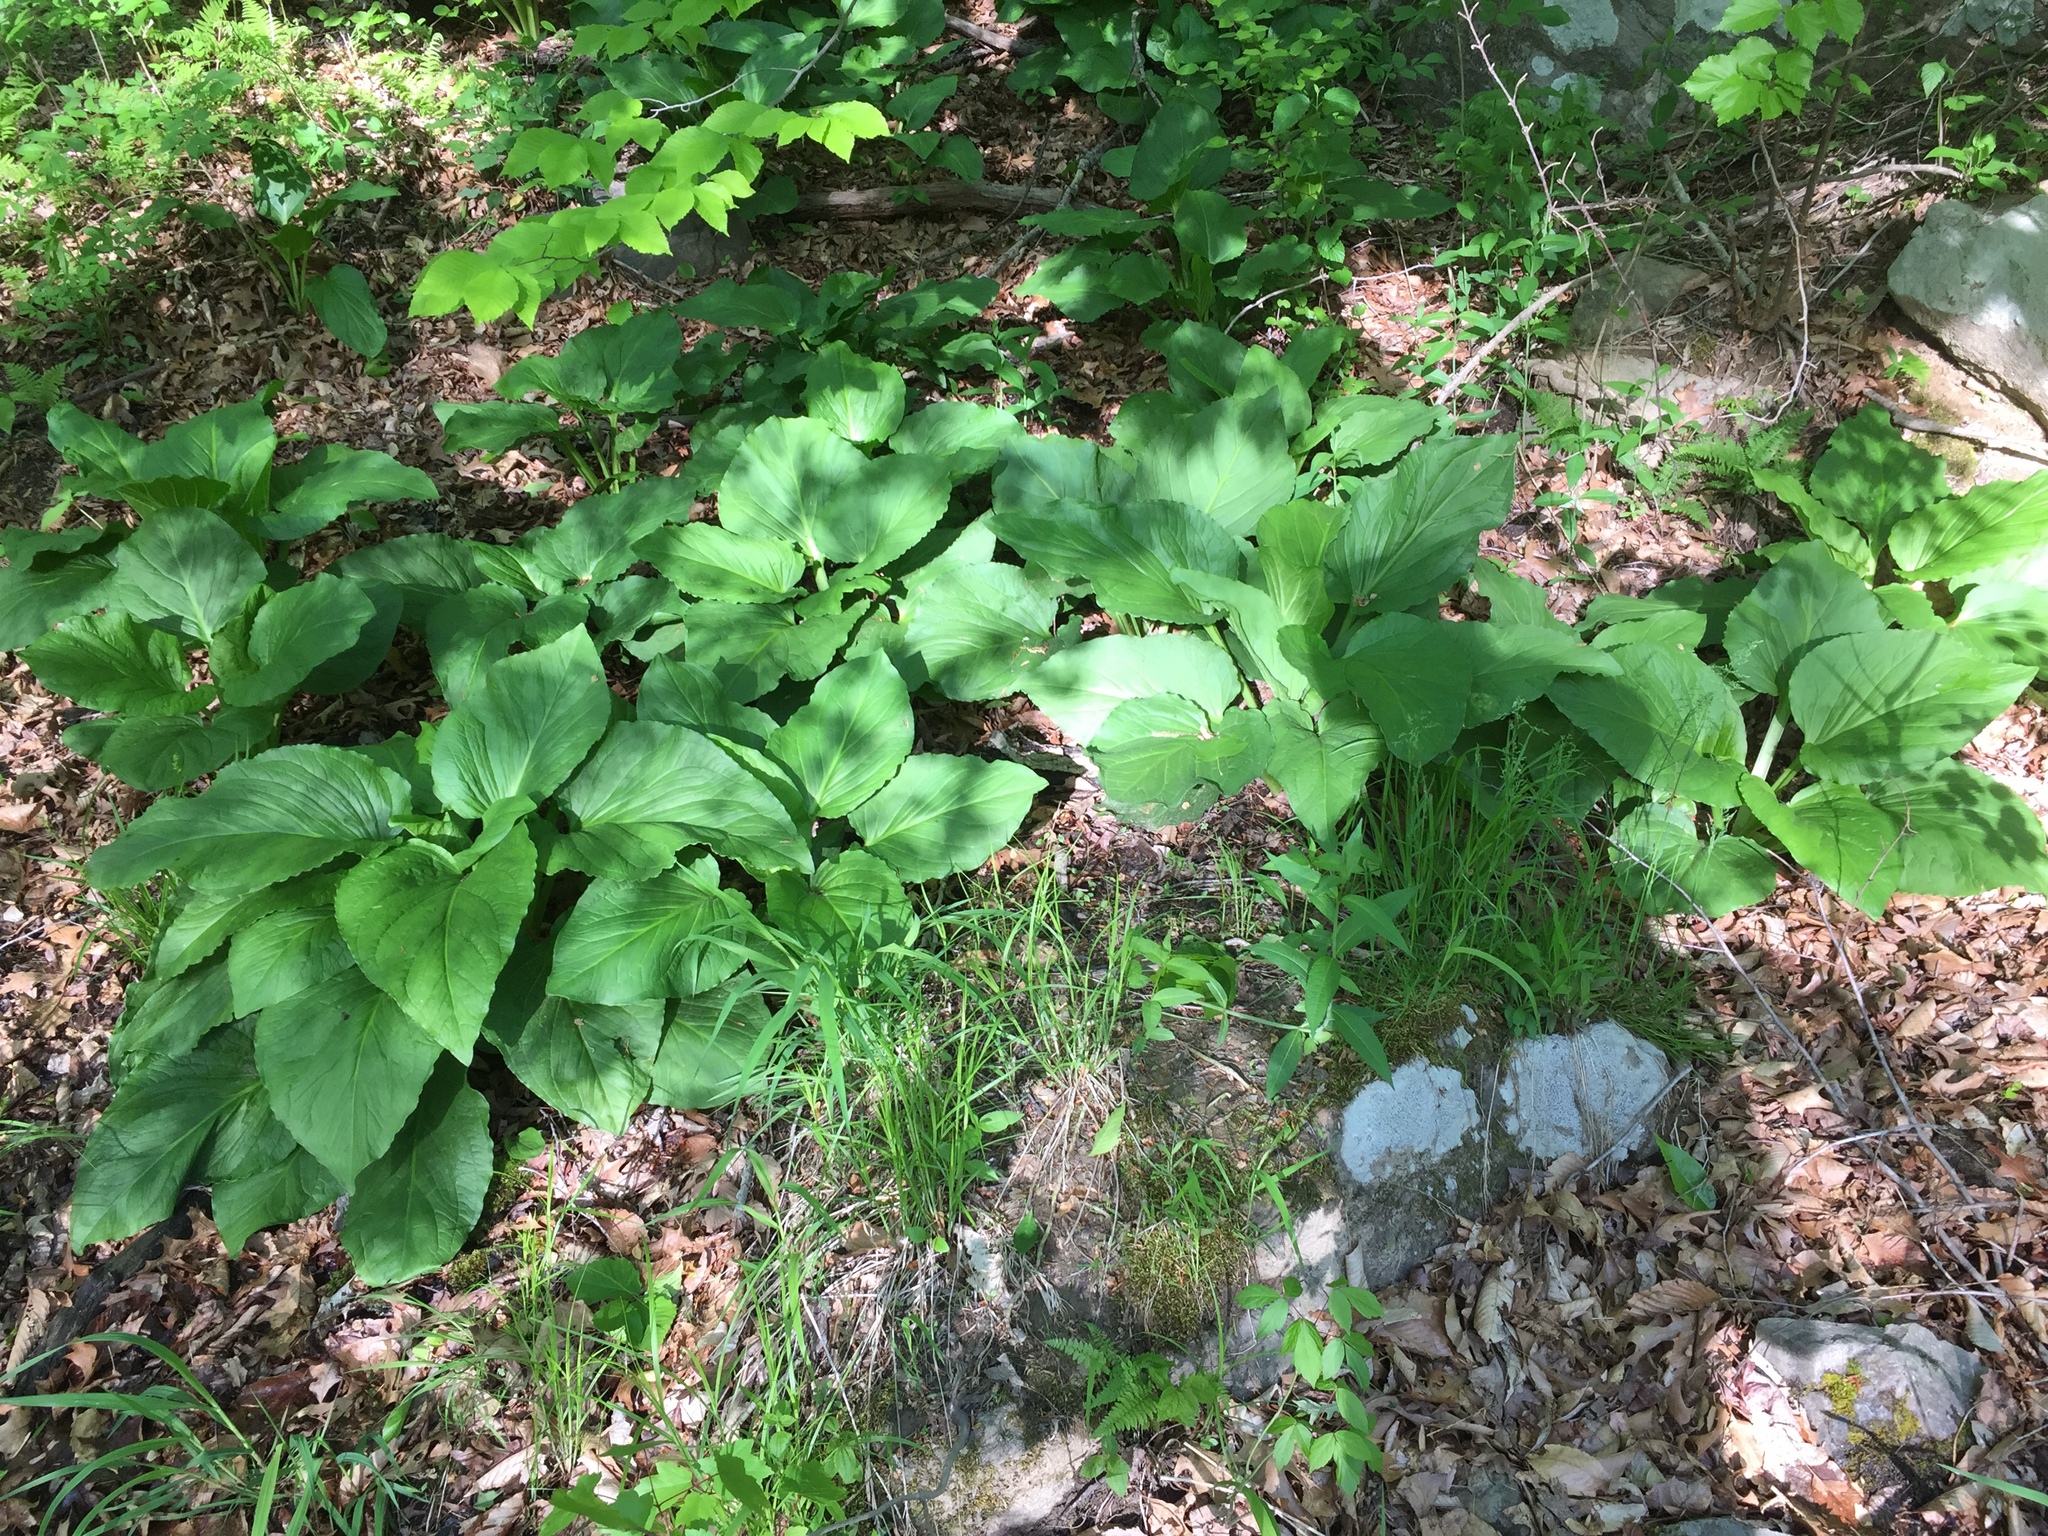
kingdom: Plantae
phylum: Tracheophyta
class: Liliopsida
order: Alismatales
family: Araceae
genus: Symplocarpus
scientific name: Symplocarpus foetidus
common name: Eastern skunk cabbage
